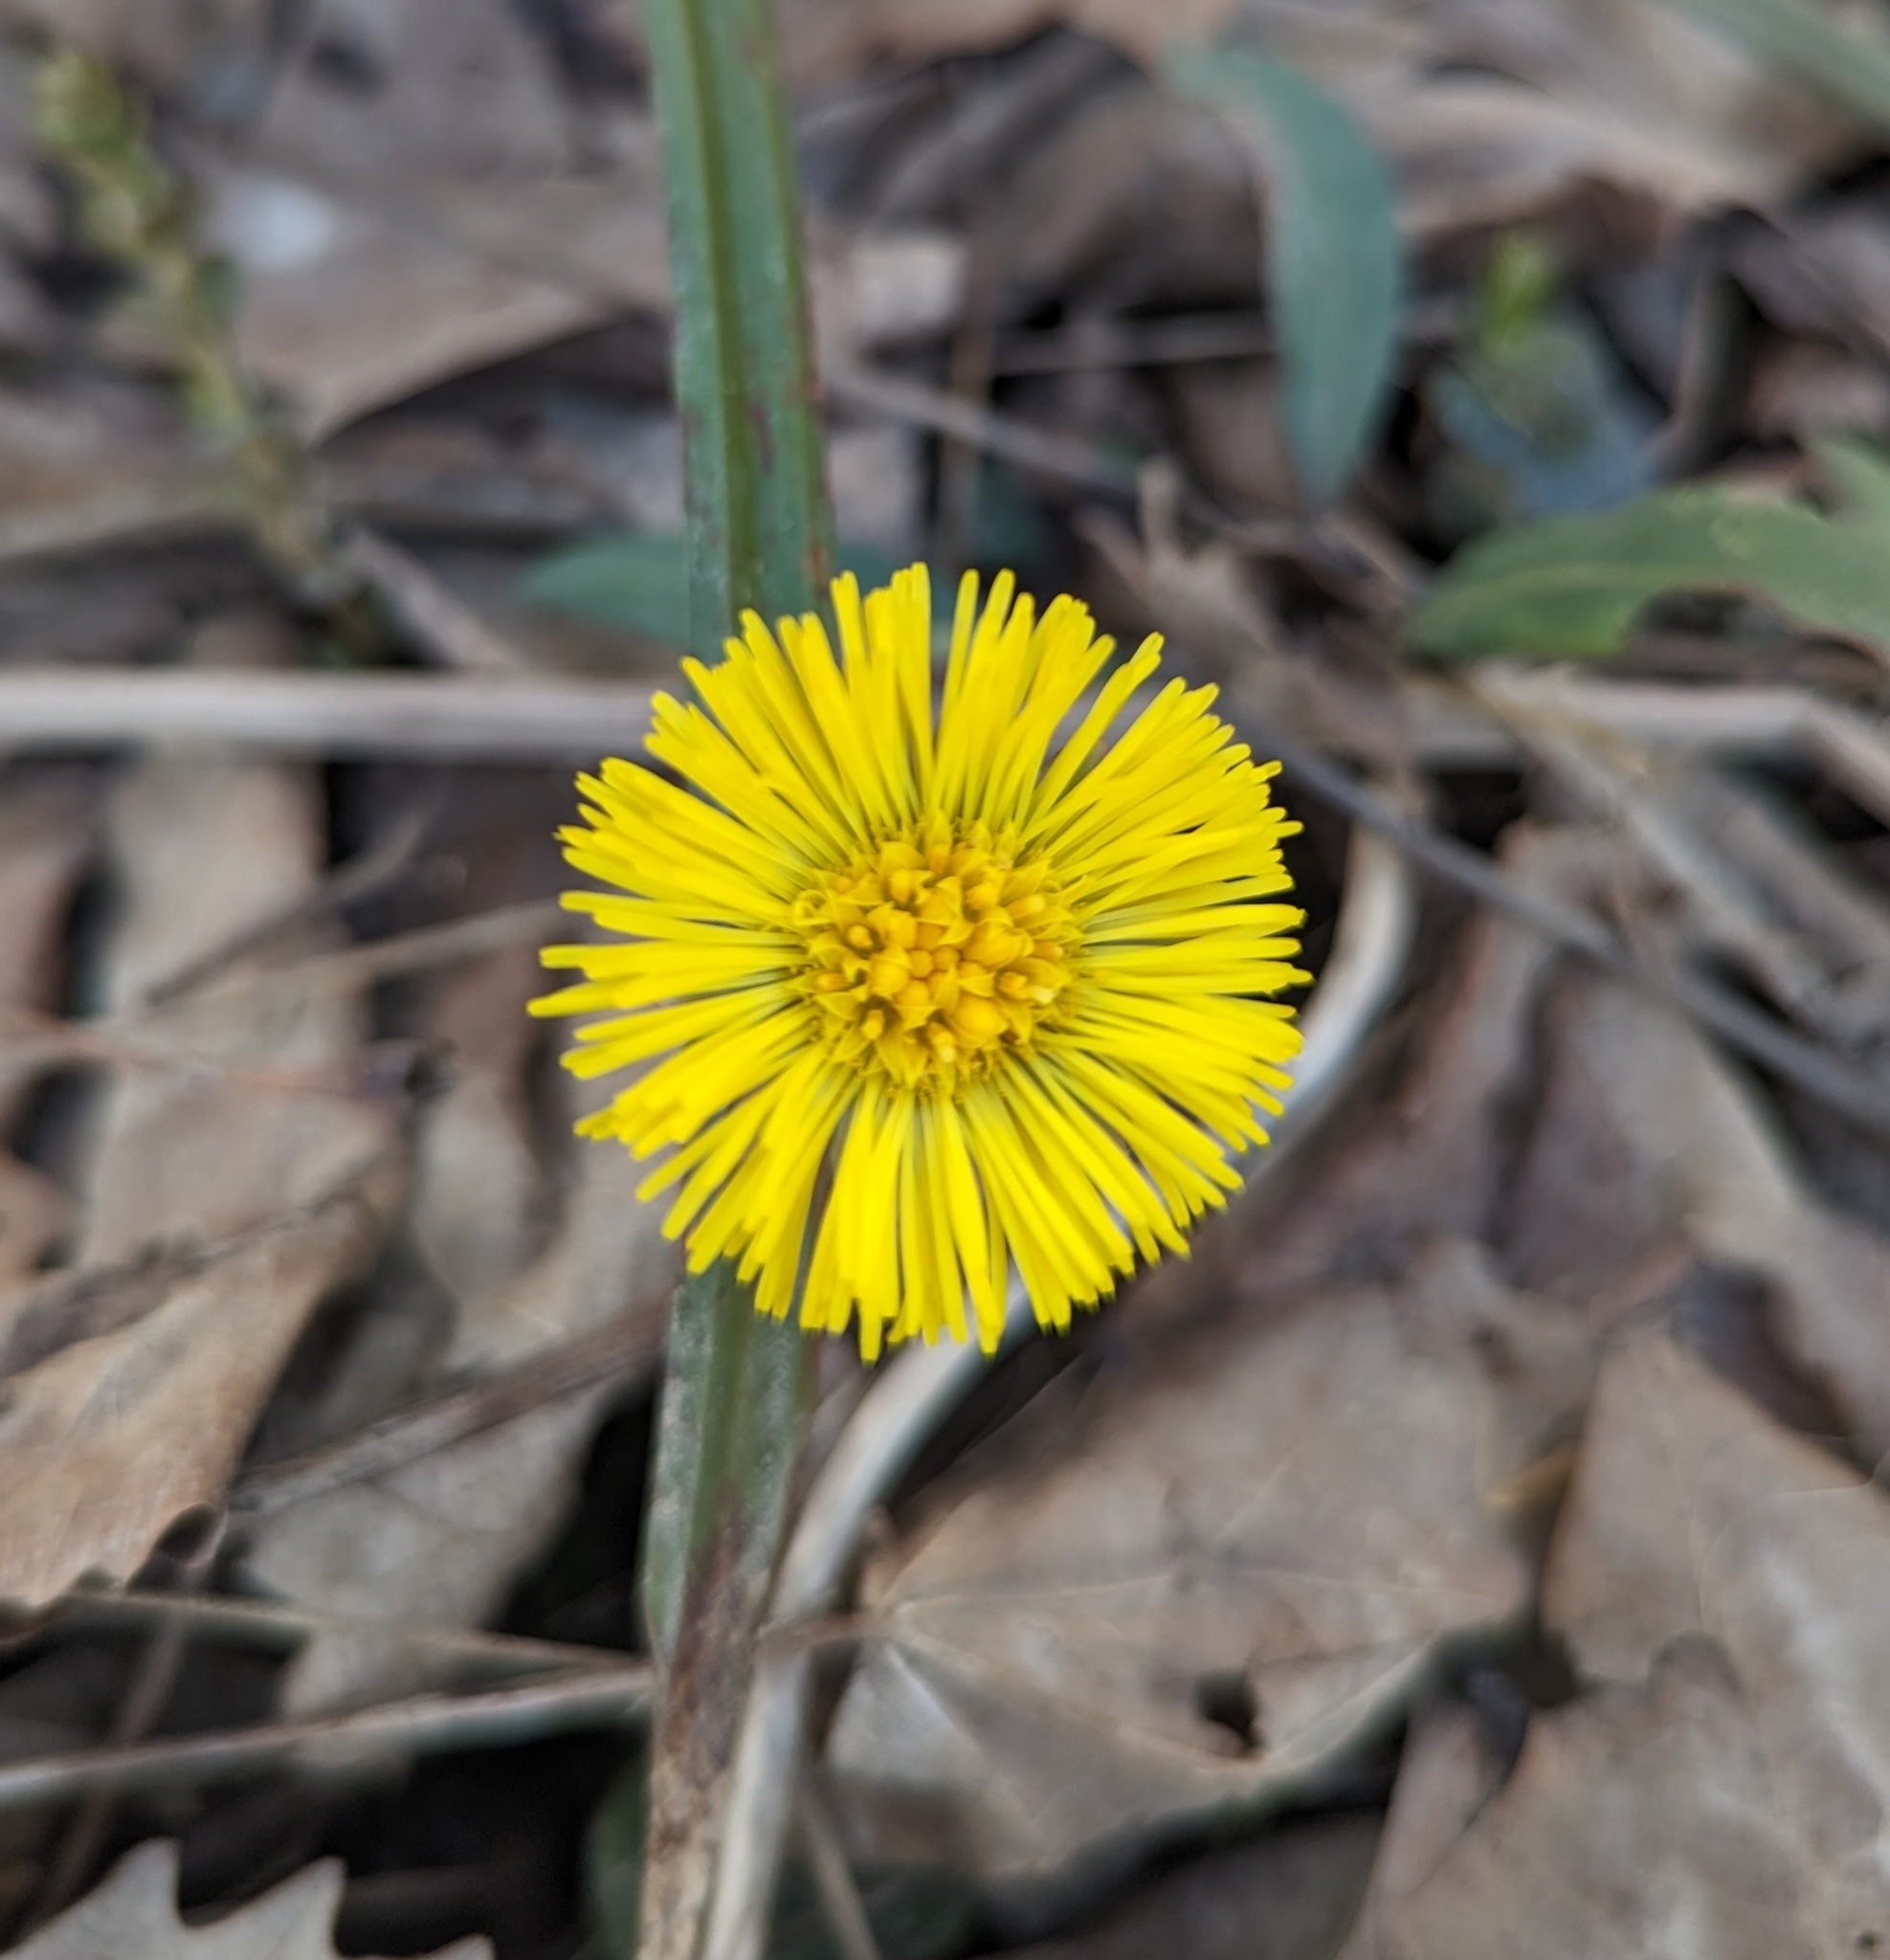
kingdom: Plantae
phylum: Tracheophyta
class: Magnoliopsida
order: Asterales
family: Asteraceae
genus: Tussilago
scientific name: Tussilago farfara
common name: Coltsfoot
